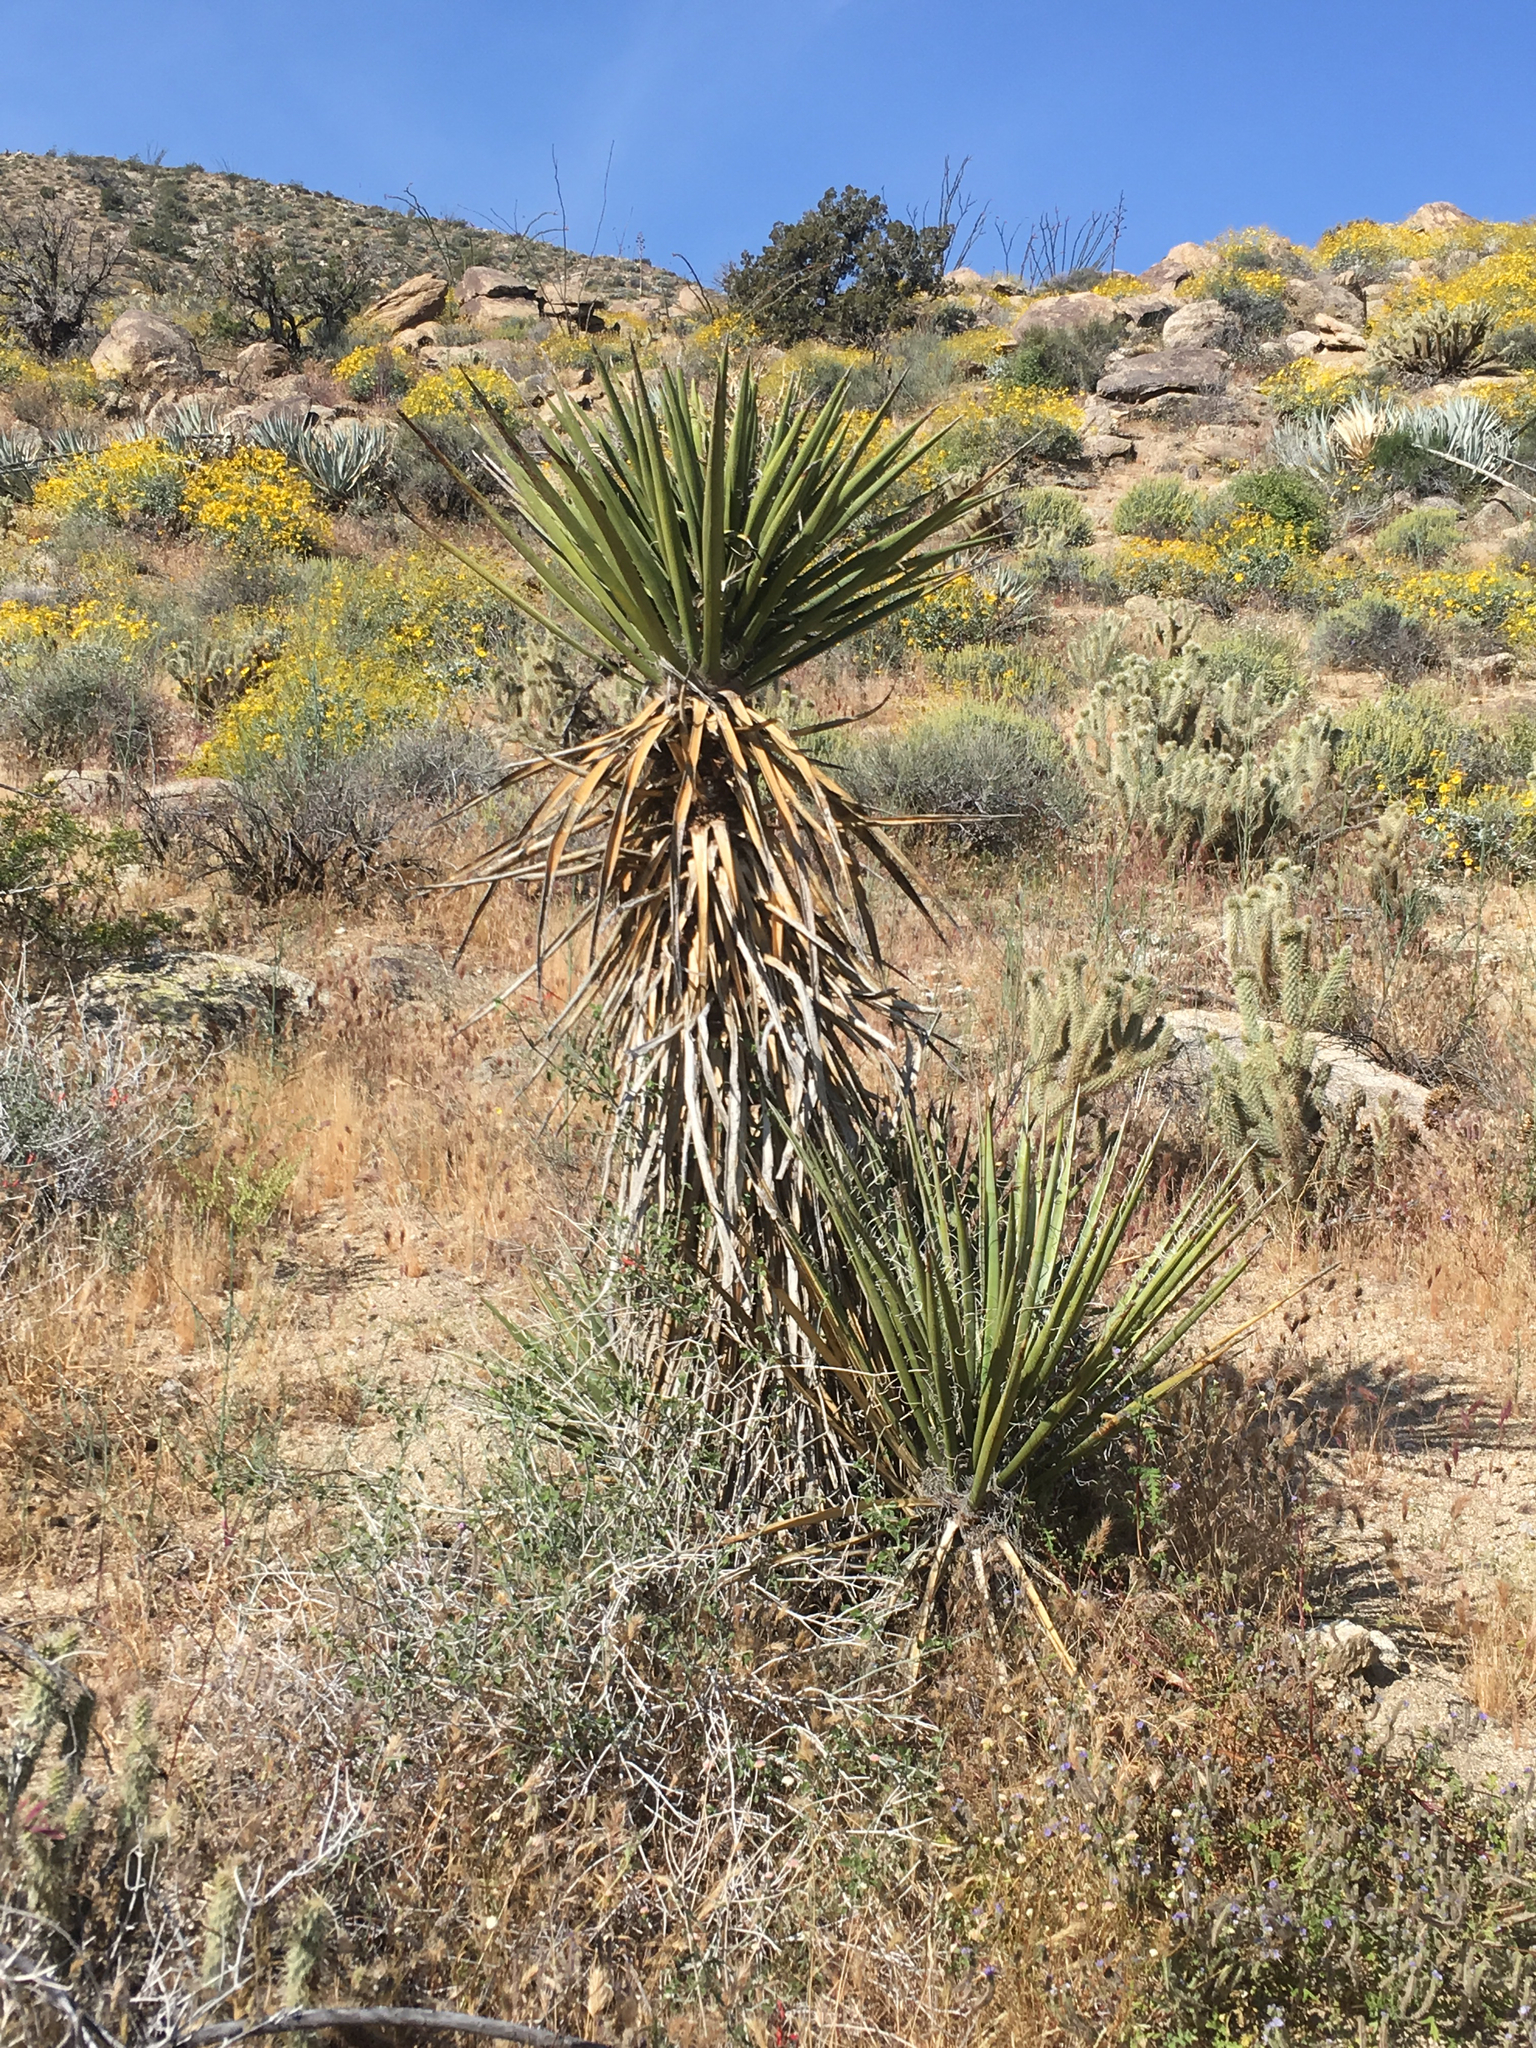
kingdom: Plantae
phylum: Tracheophyta
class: Liliopsida
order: Asparagales
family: Asparagaceae
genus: Yucca
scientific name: Yucca schidigera
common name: Mojave yucca
